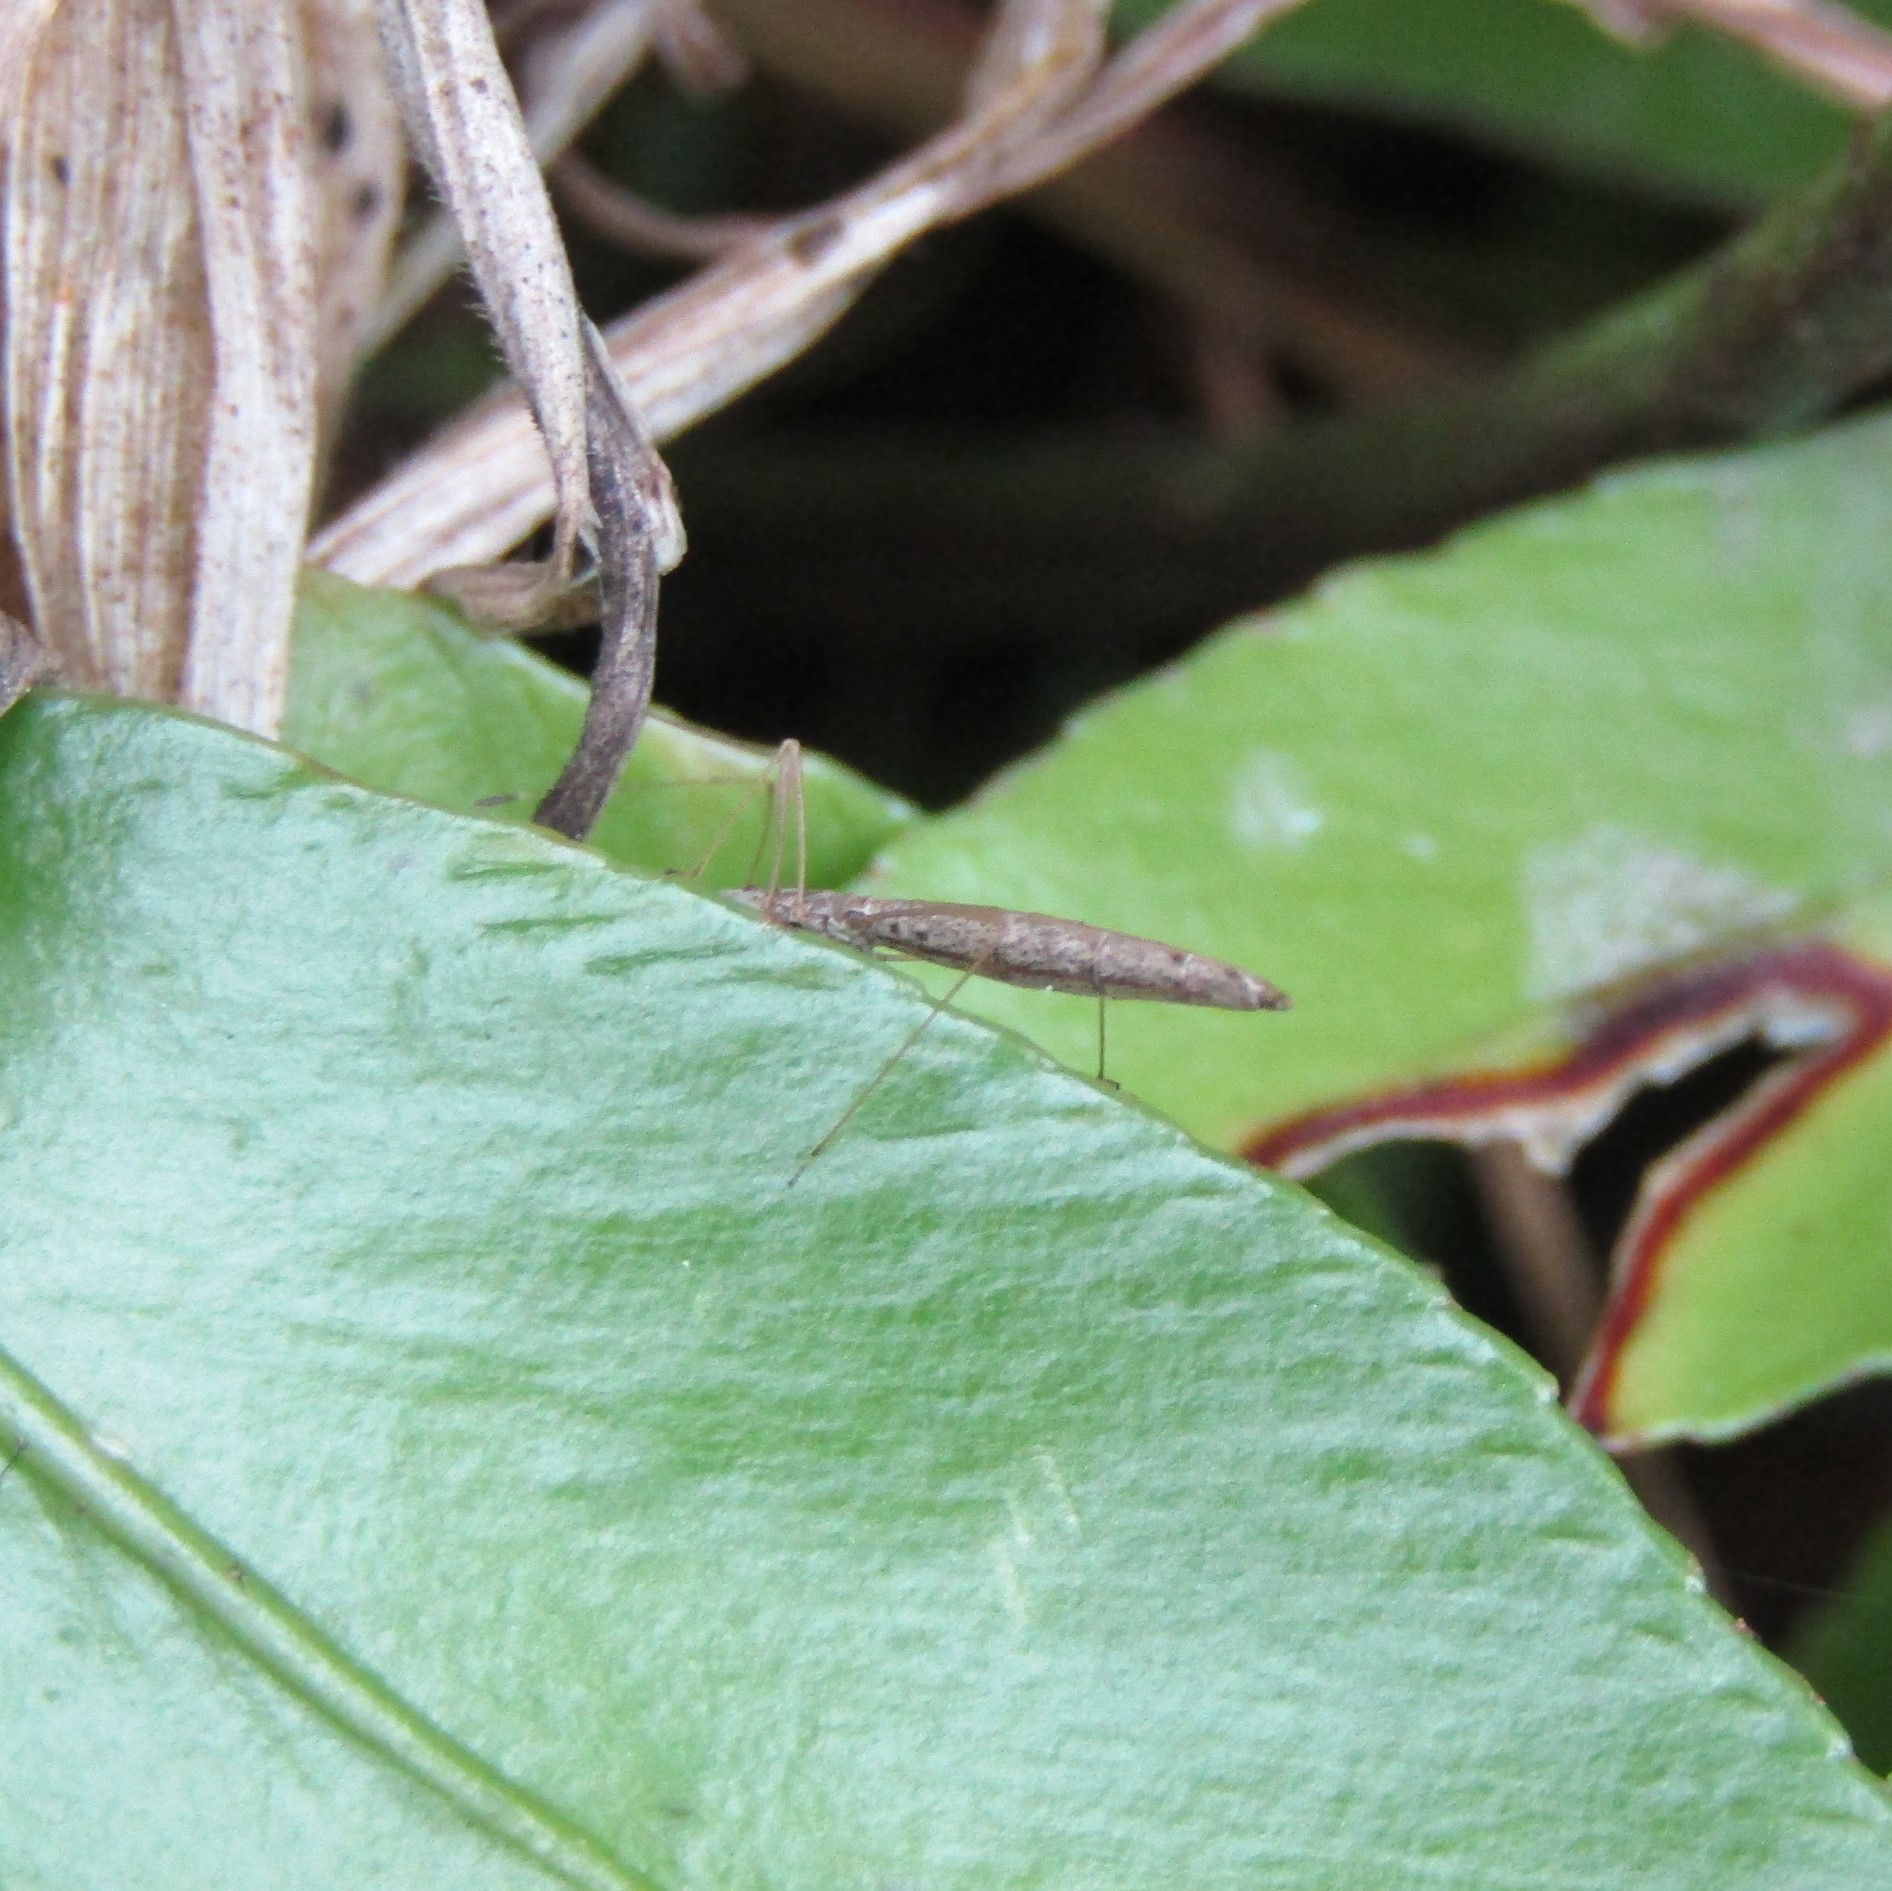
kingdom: Animalia
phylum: Arthropoda
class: Insecta
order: Hemiptera
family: Berytidae
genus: Bezu
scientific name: Bezu wakefieldi
